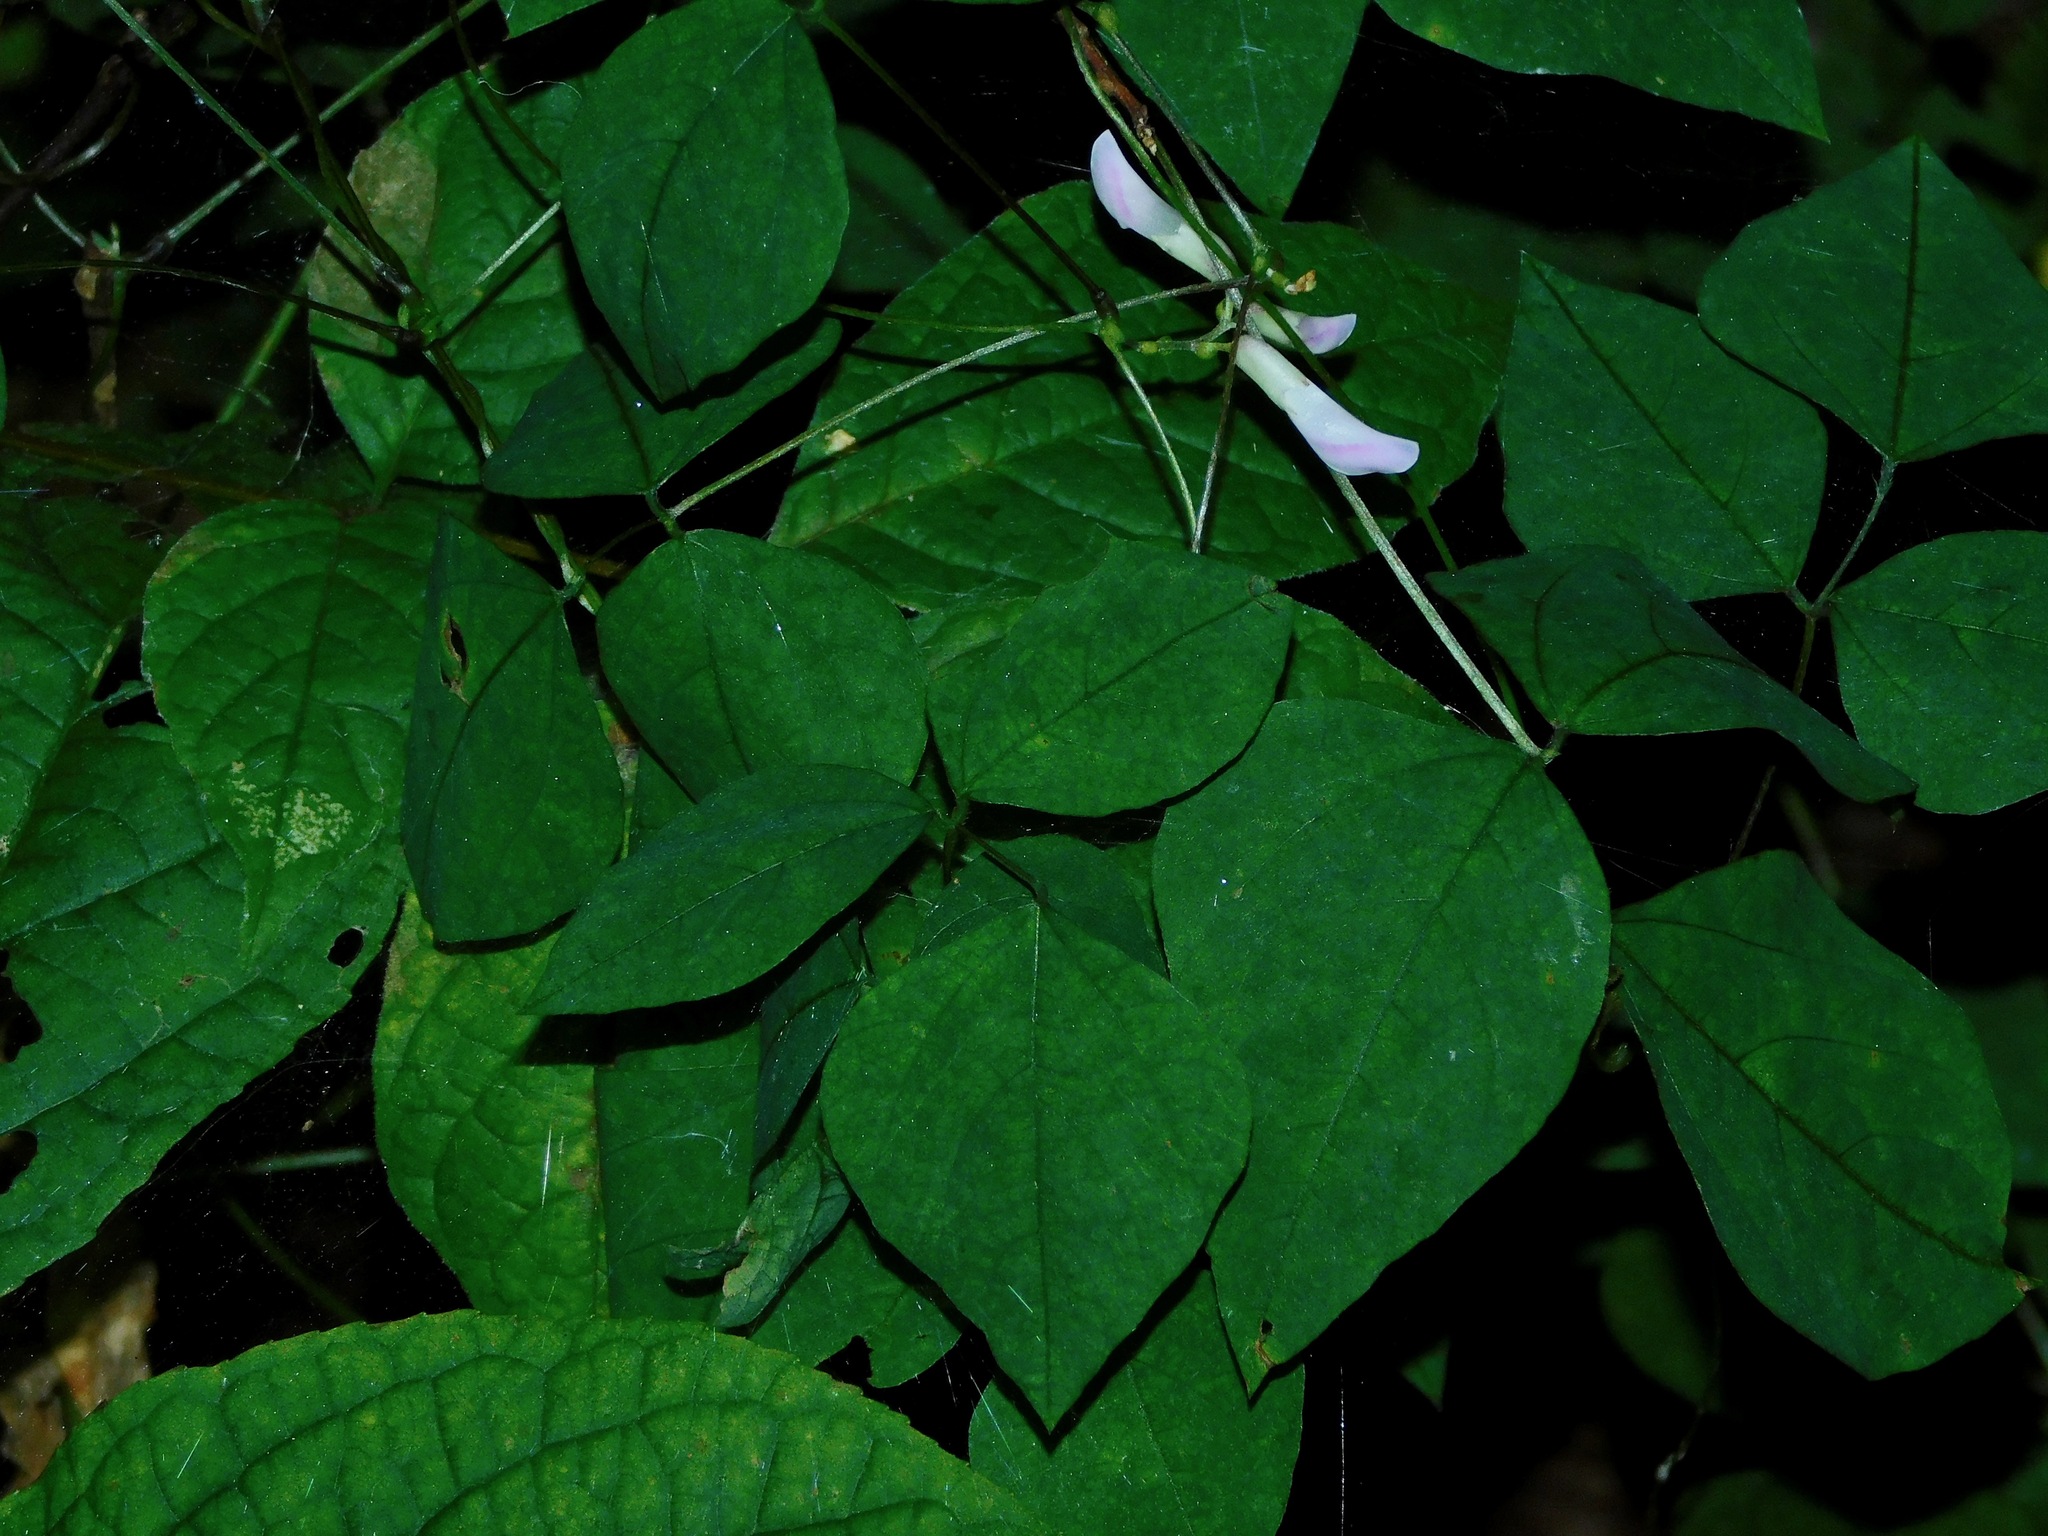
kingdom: Plantae
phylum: Tracheophyta
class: Magnoliopsida
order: Fabales
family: Fabaceae
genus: Amphicarpaea
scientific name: Amphicarpaea bracteata
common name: American hog peanut
